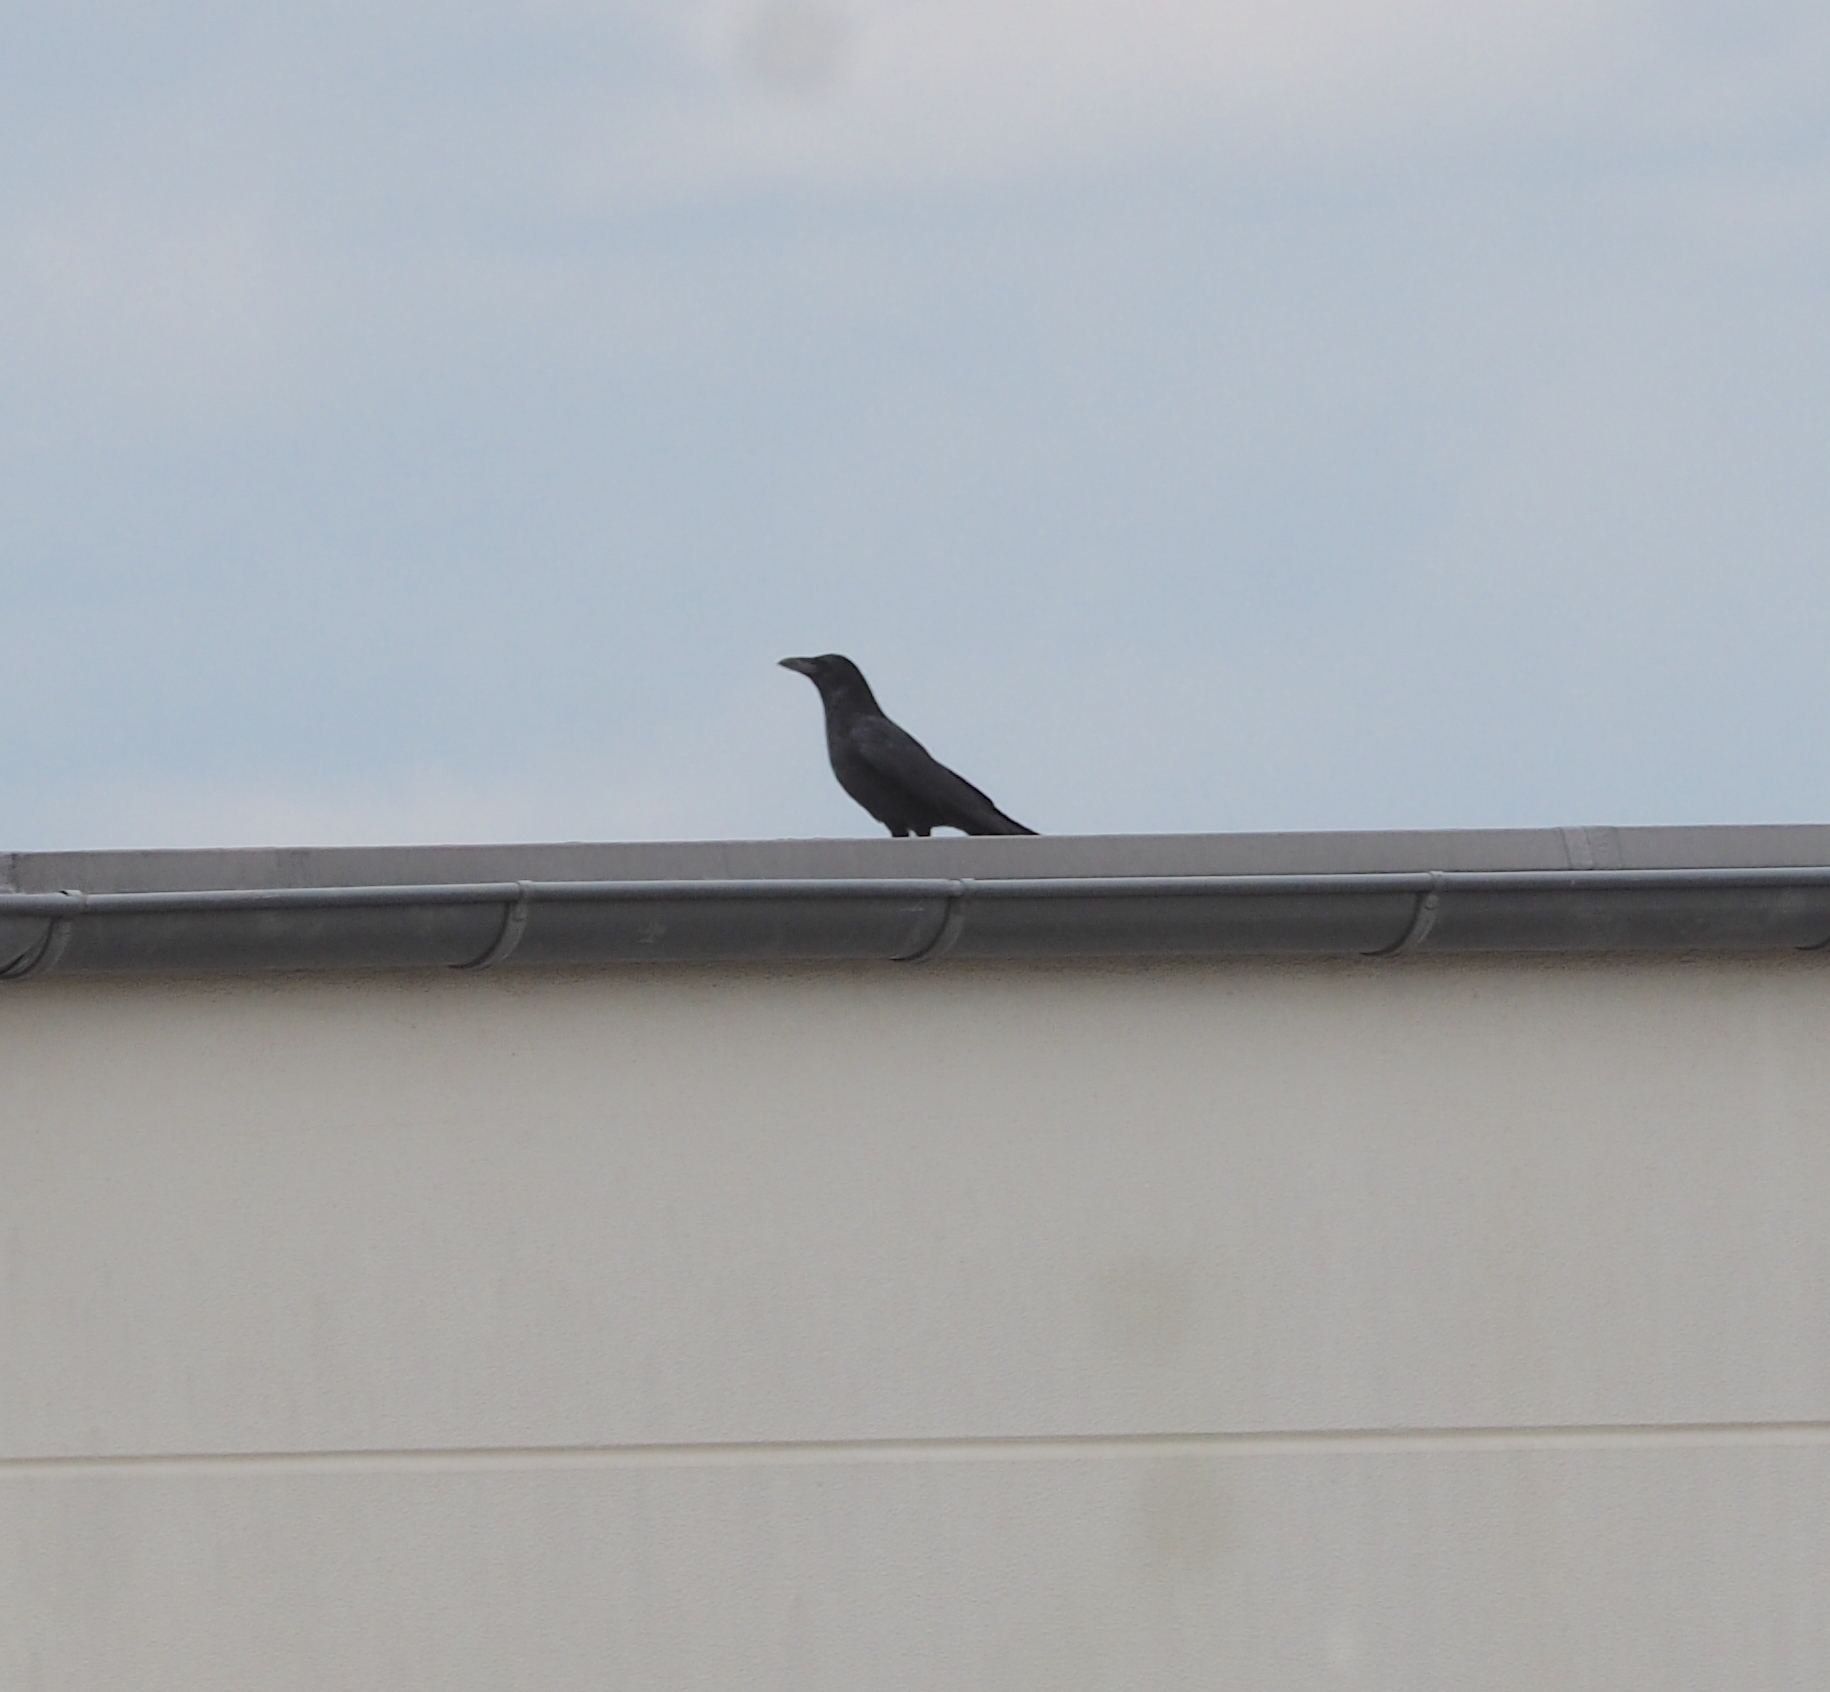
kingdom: Animalia
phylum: Chordata
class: Aves
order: Passeriformes
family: Corvidae
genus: Corvus
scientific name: Corvus corone
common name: Carrion crow
